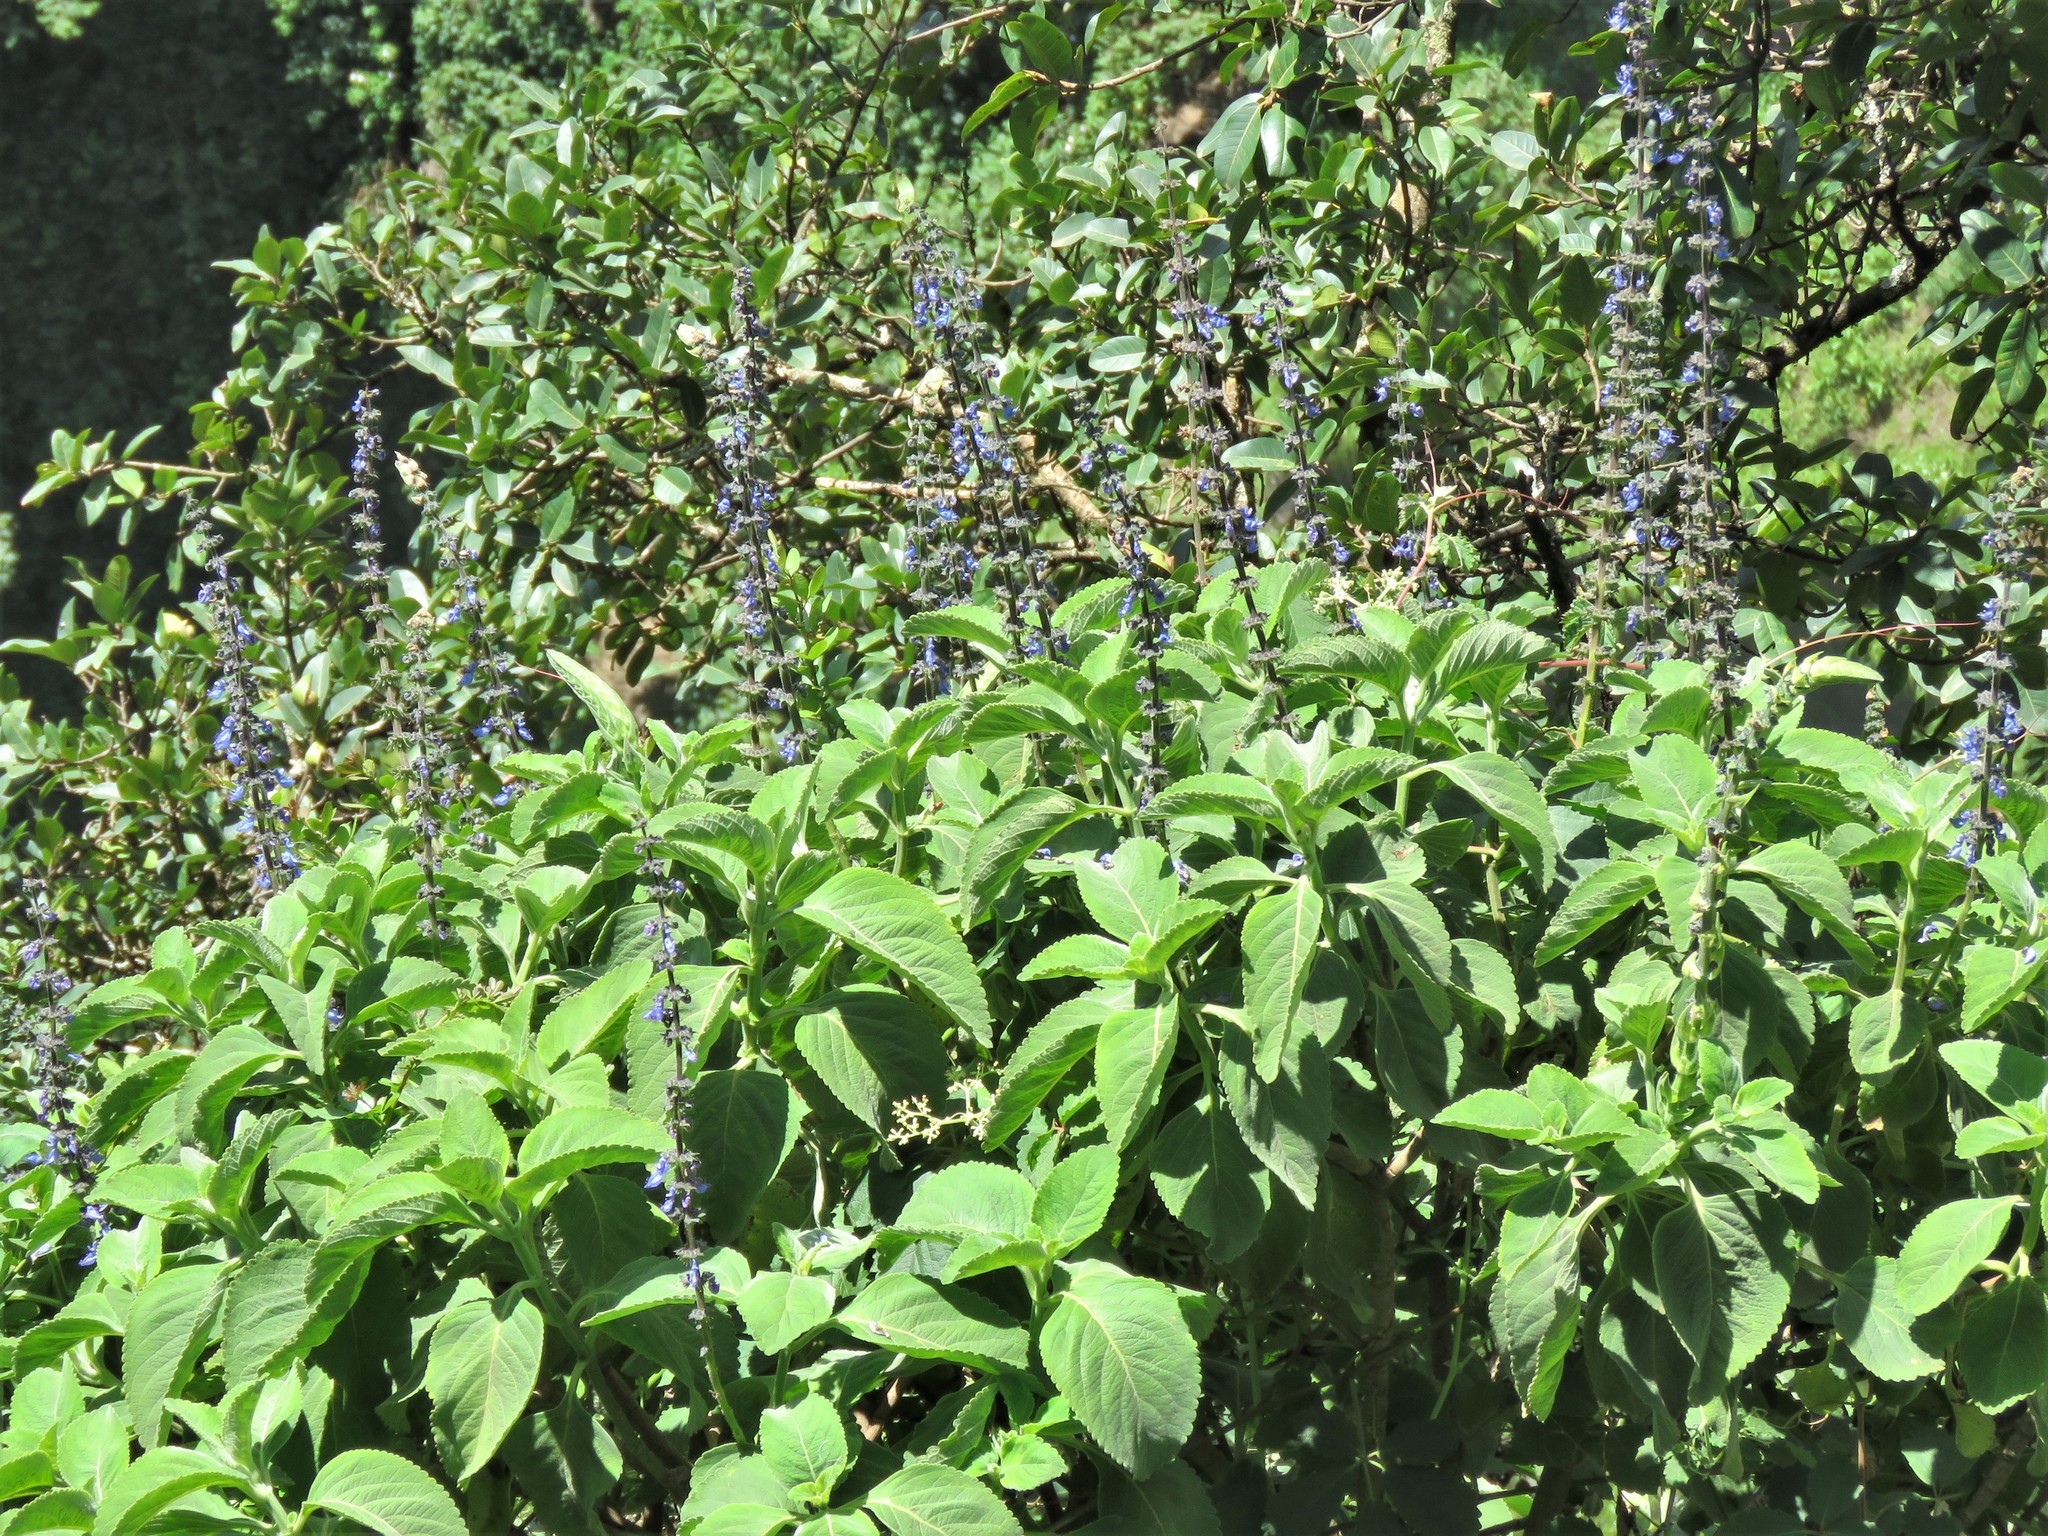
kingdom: Plantae
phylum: Tracheophyta
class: Magnoliopsida
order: Lamiales
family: Lamiaceae
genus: Coleus
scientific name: Coleus barbatus
